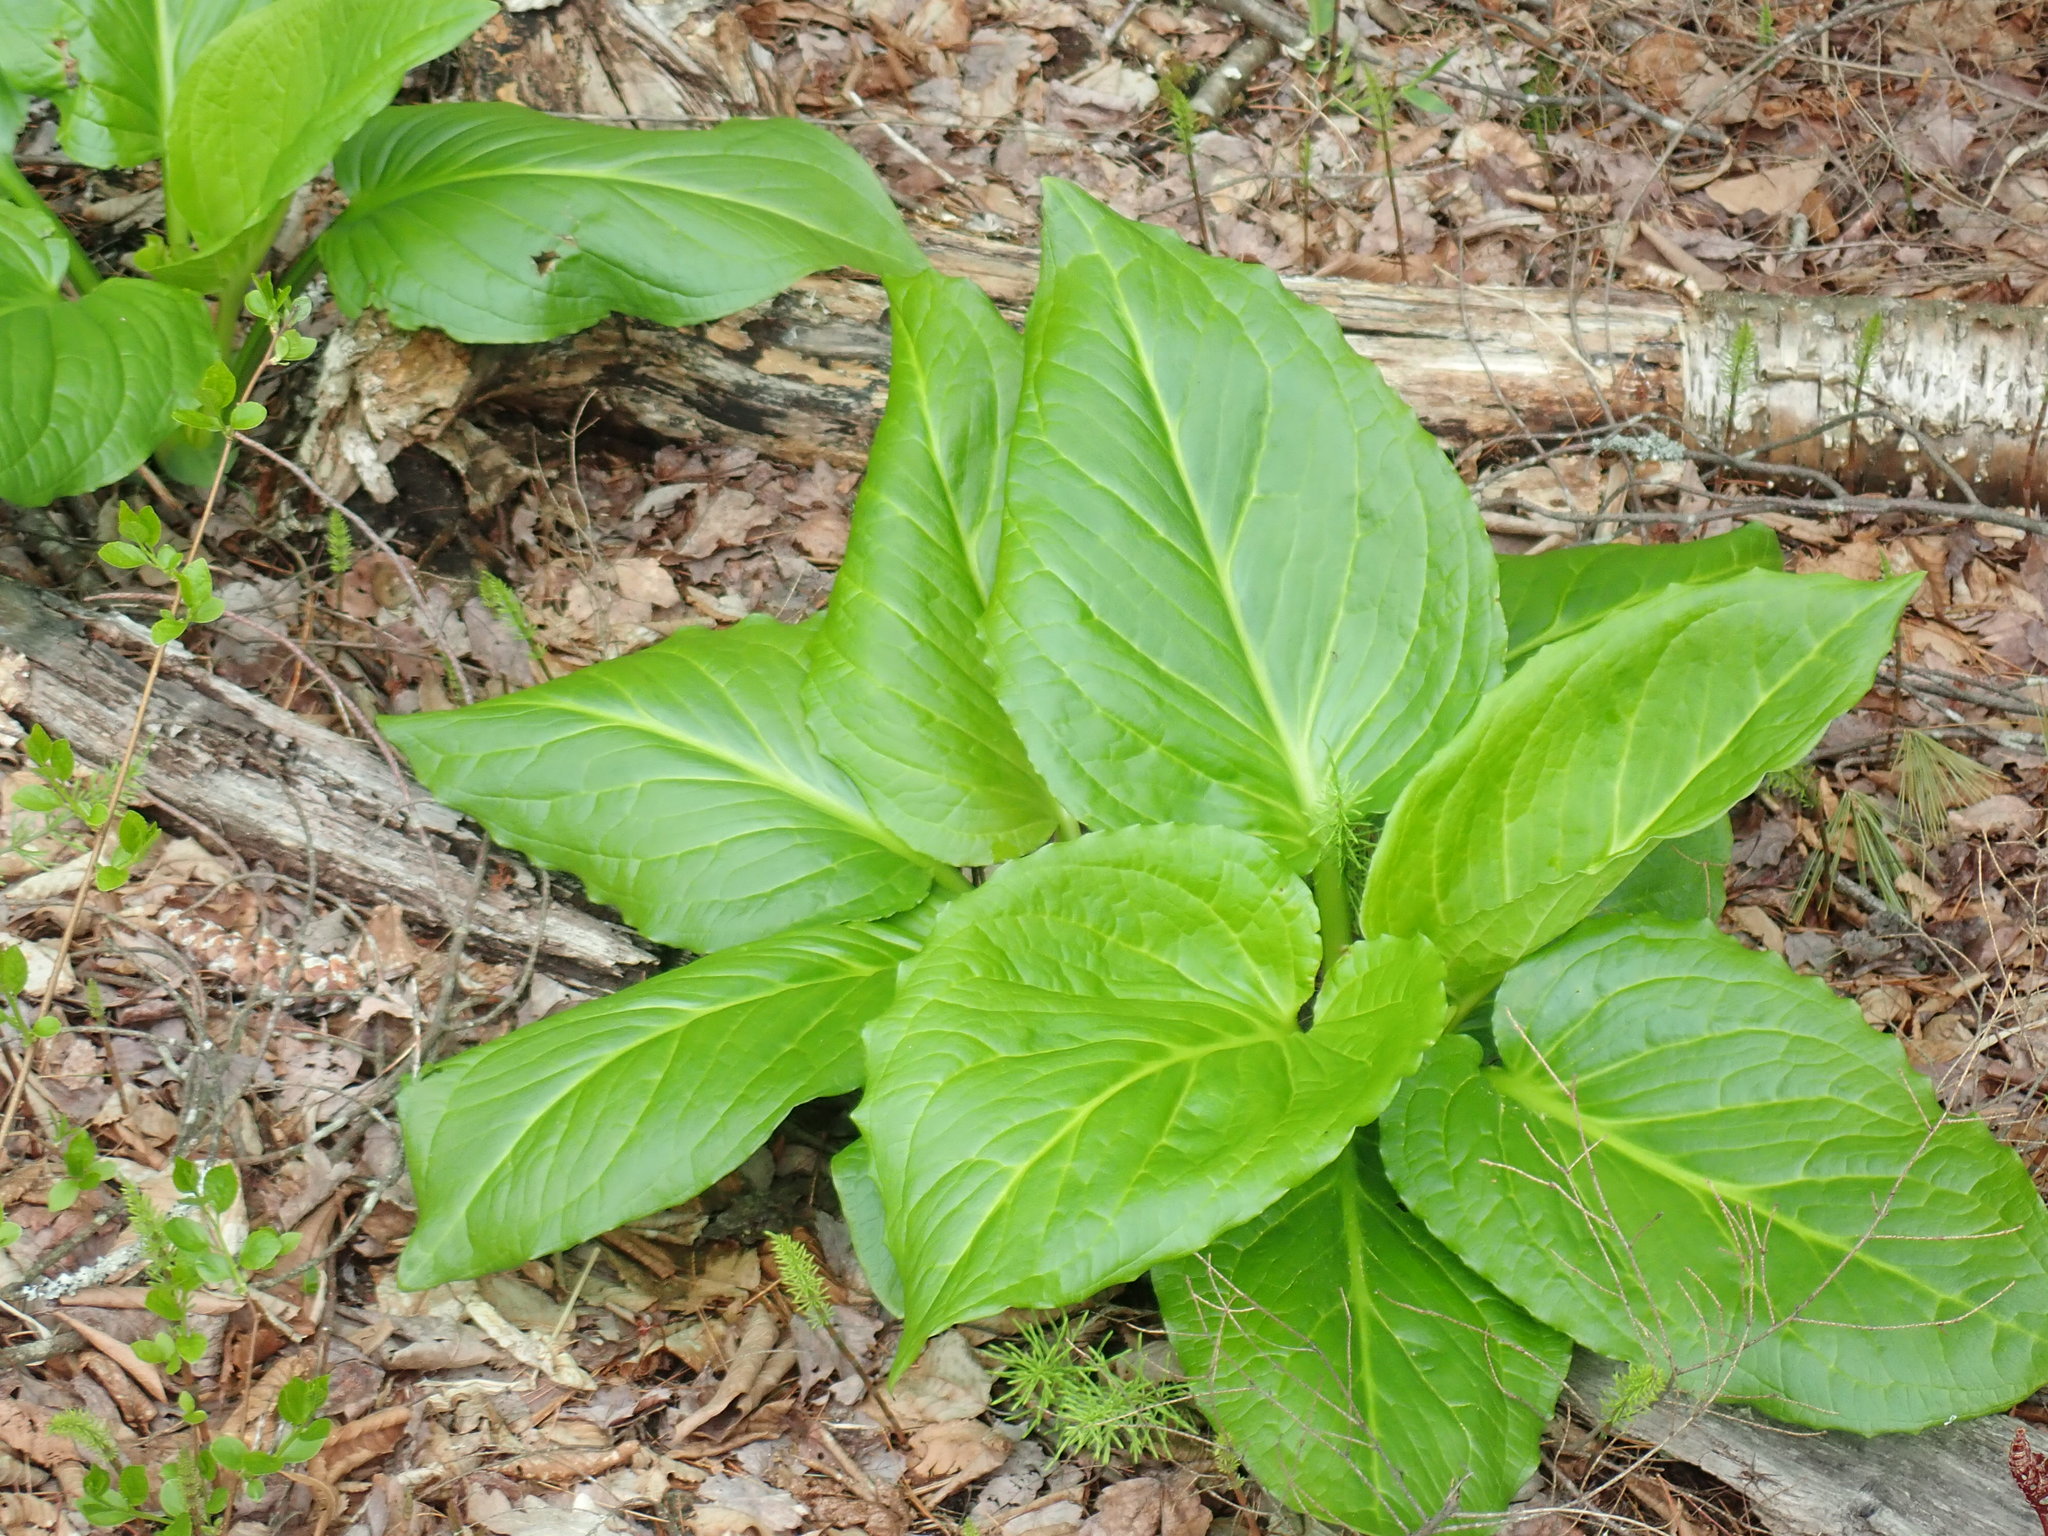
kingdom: Plantae
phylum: Tracheophyta
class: Liliopsida
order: Alismatales
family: Araceae
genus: Symplocarpus
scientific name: Symplocarpus foetidus
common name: Eastern skunk cabbage
